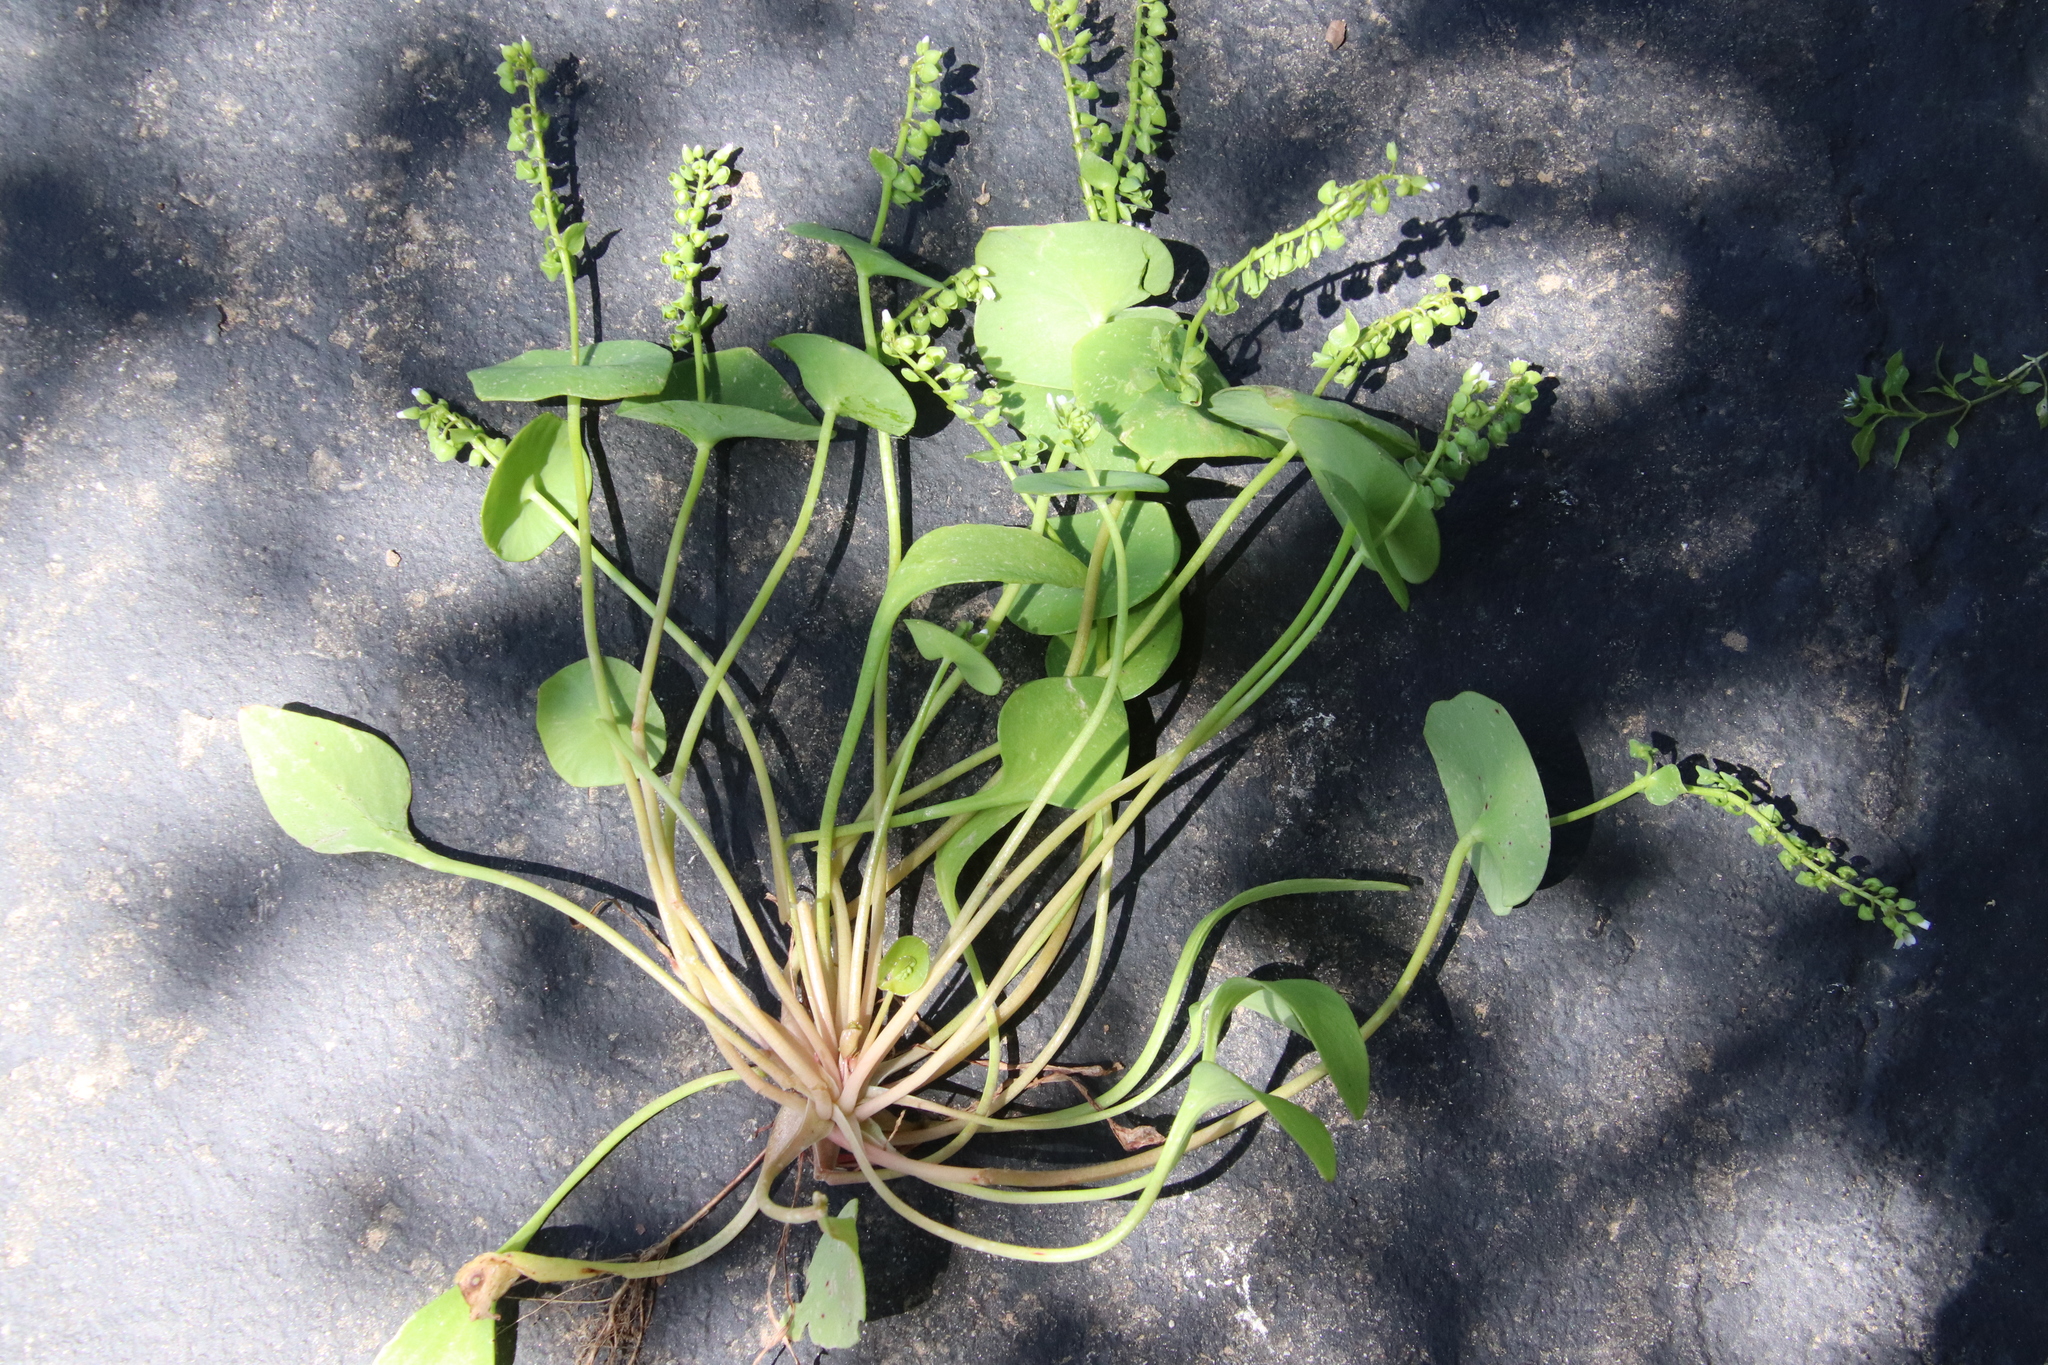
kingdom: Plantae
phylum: Tracheophyta
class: Magnoliopsida
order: Caryophyllales
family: Montiaceae
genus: Claytonia
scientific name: Claytonia perfoliata
